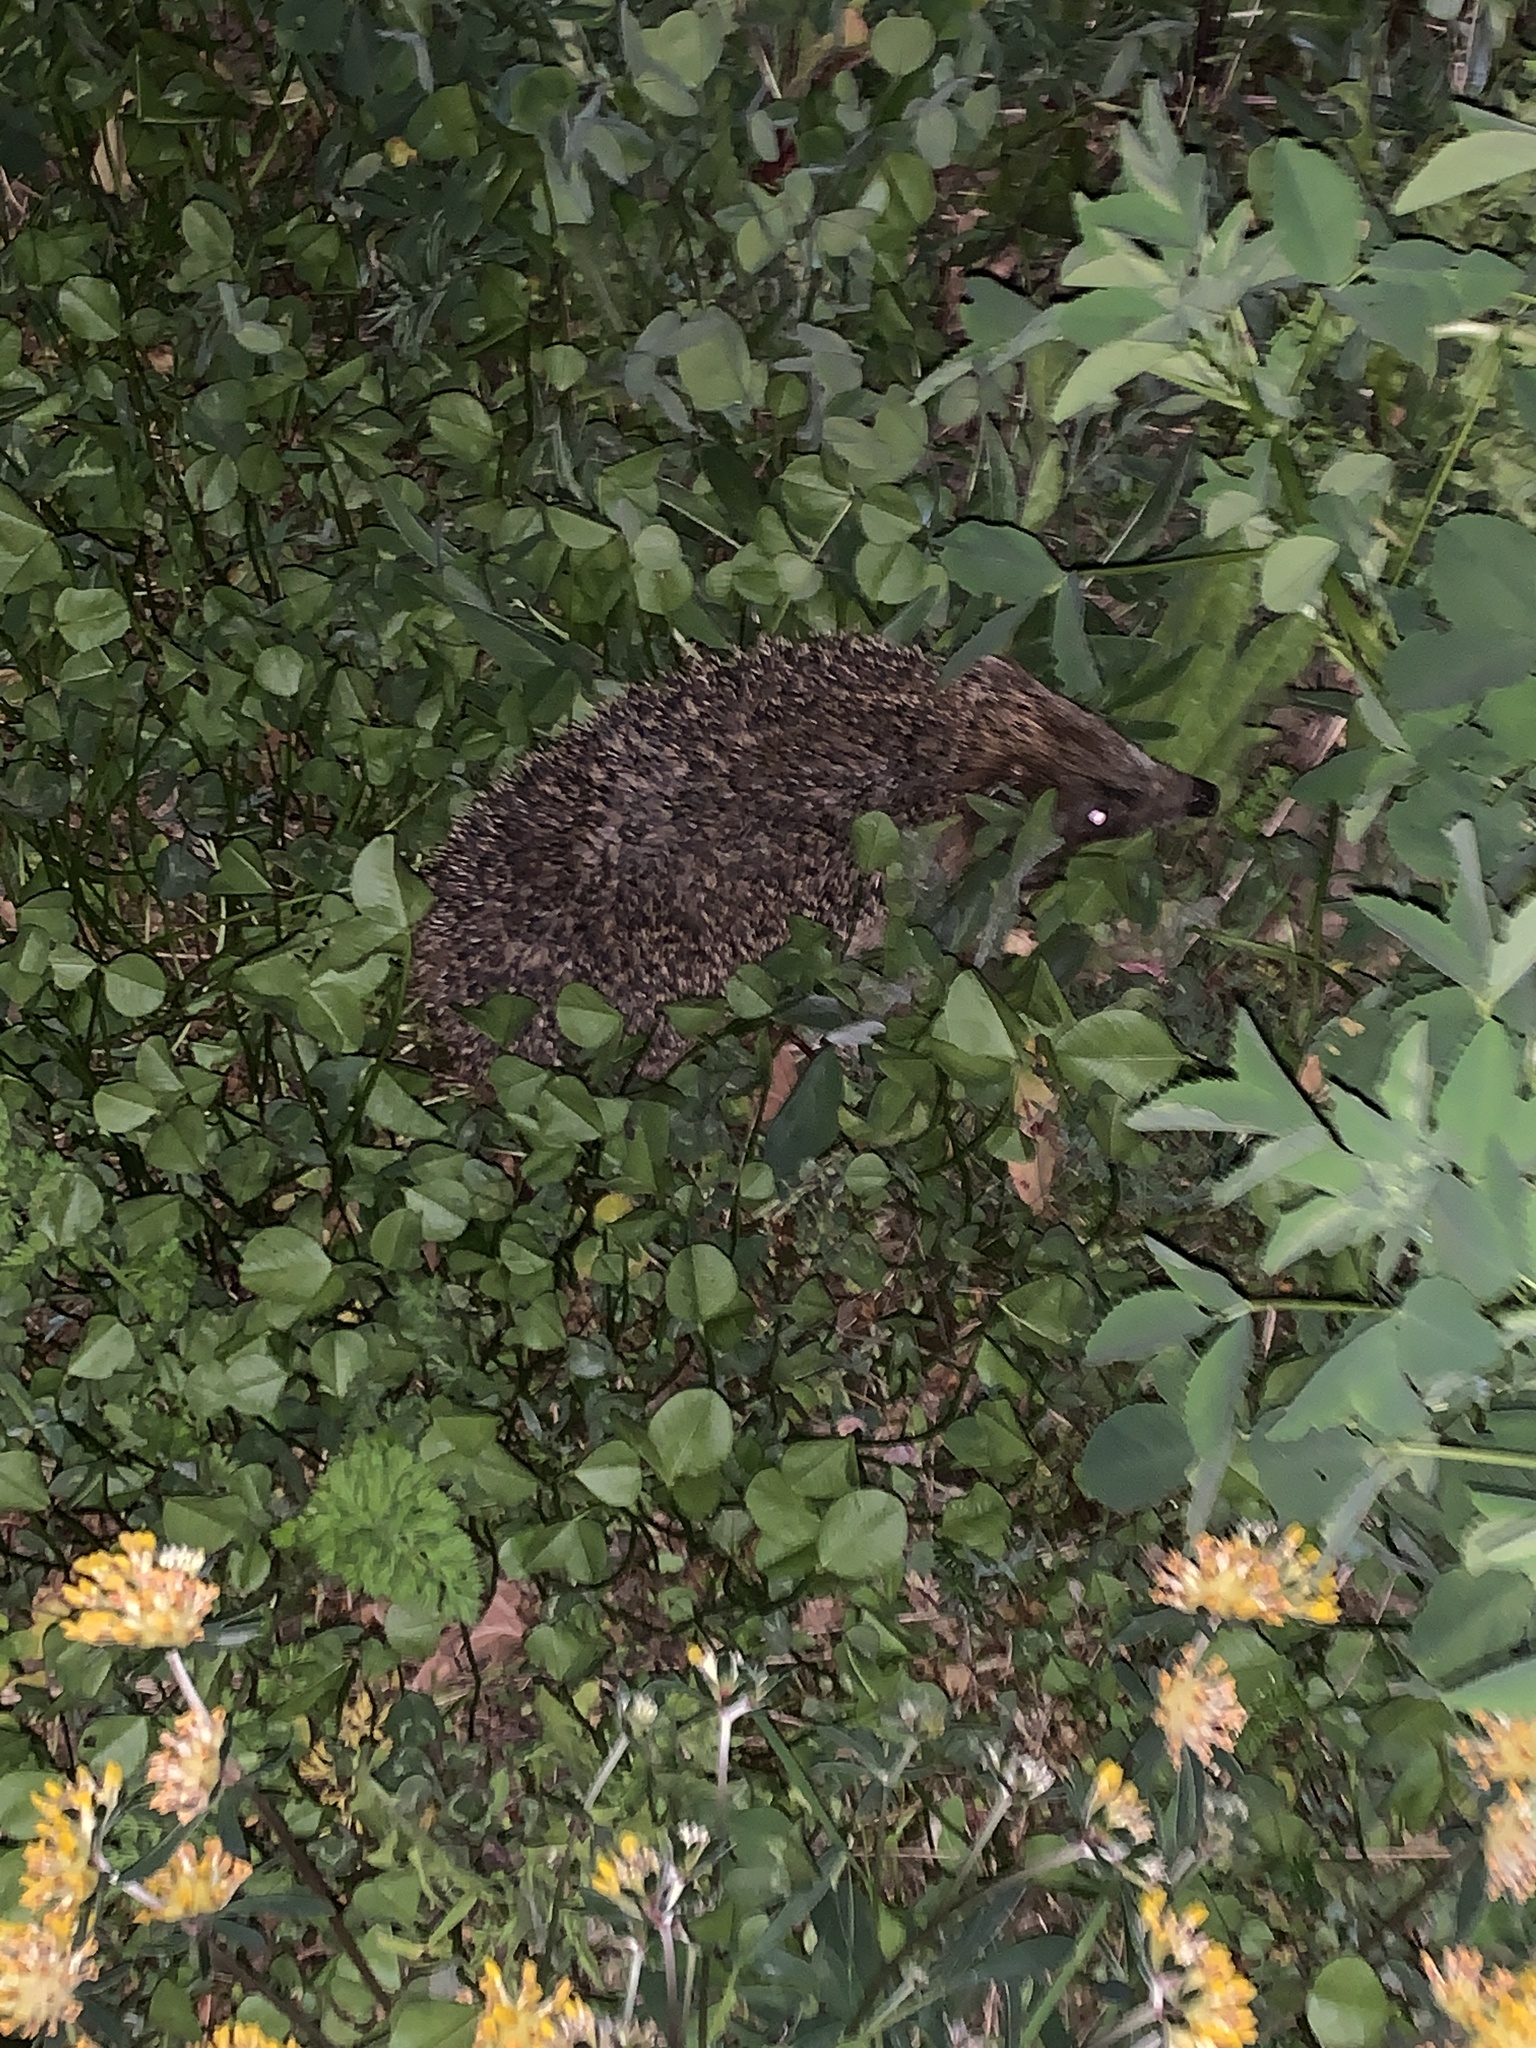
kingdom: Animalia
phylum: Chordata
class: Mammalia
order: Erinaceomorpha
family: Erinaceidae
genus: Erinaceus
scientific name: Erinaceus europaeus
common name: West european hedgehog
